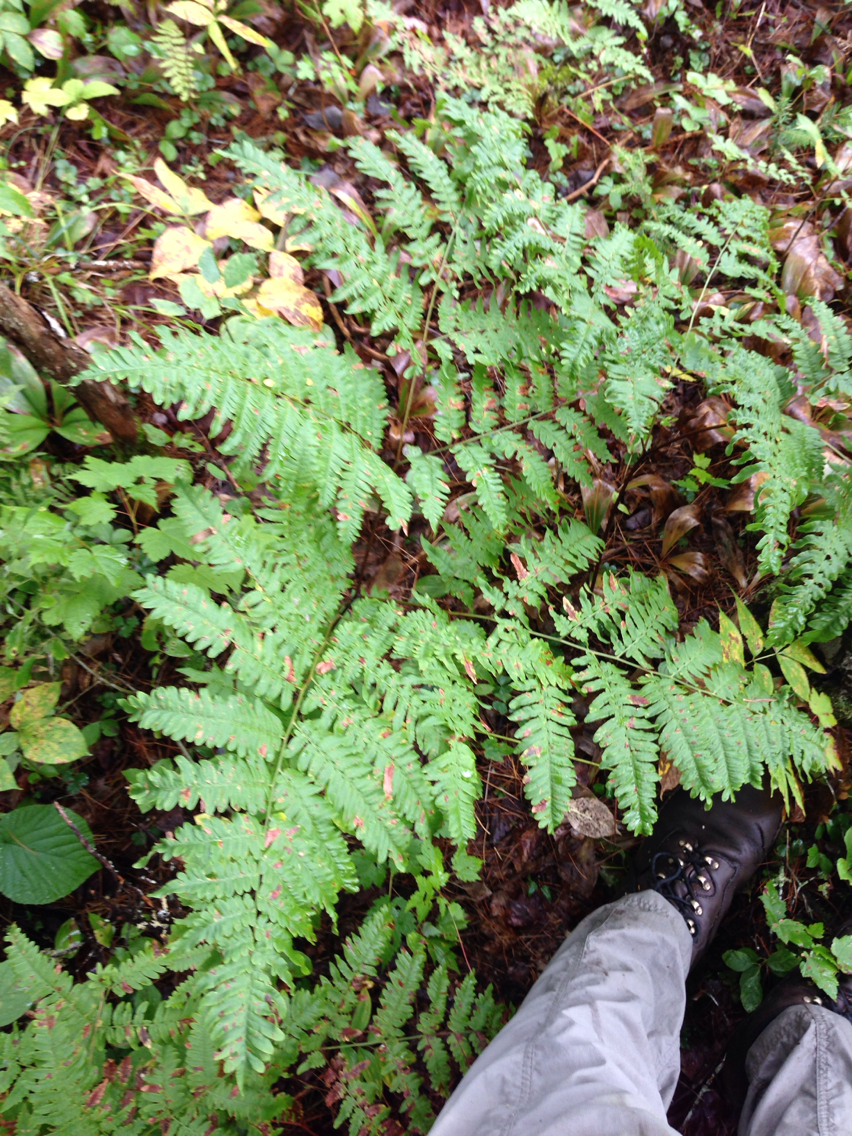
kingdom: Plantae
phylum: Tracheophyta
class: Polypodiopsida
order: Polypodiales
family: Dennstaedtiaceae
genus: Pteridium
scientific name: Pteridium aquilinum
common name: Bracken
